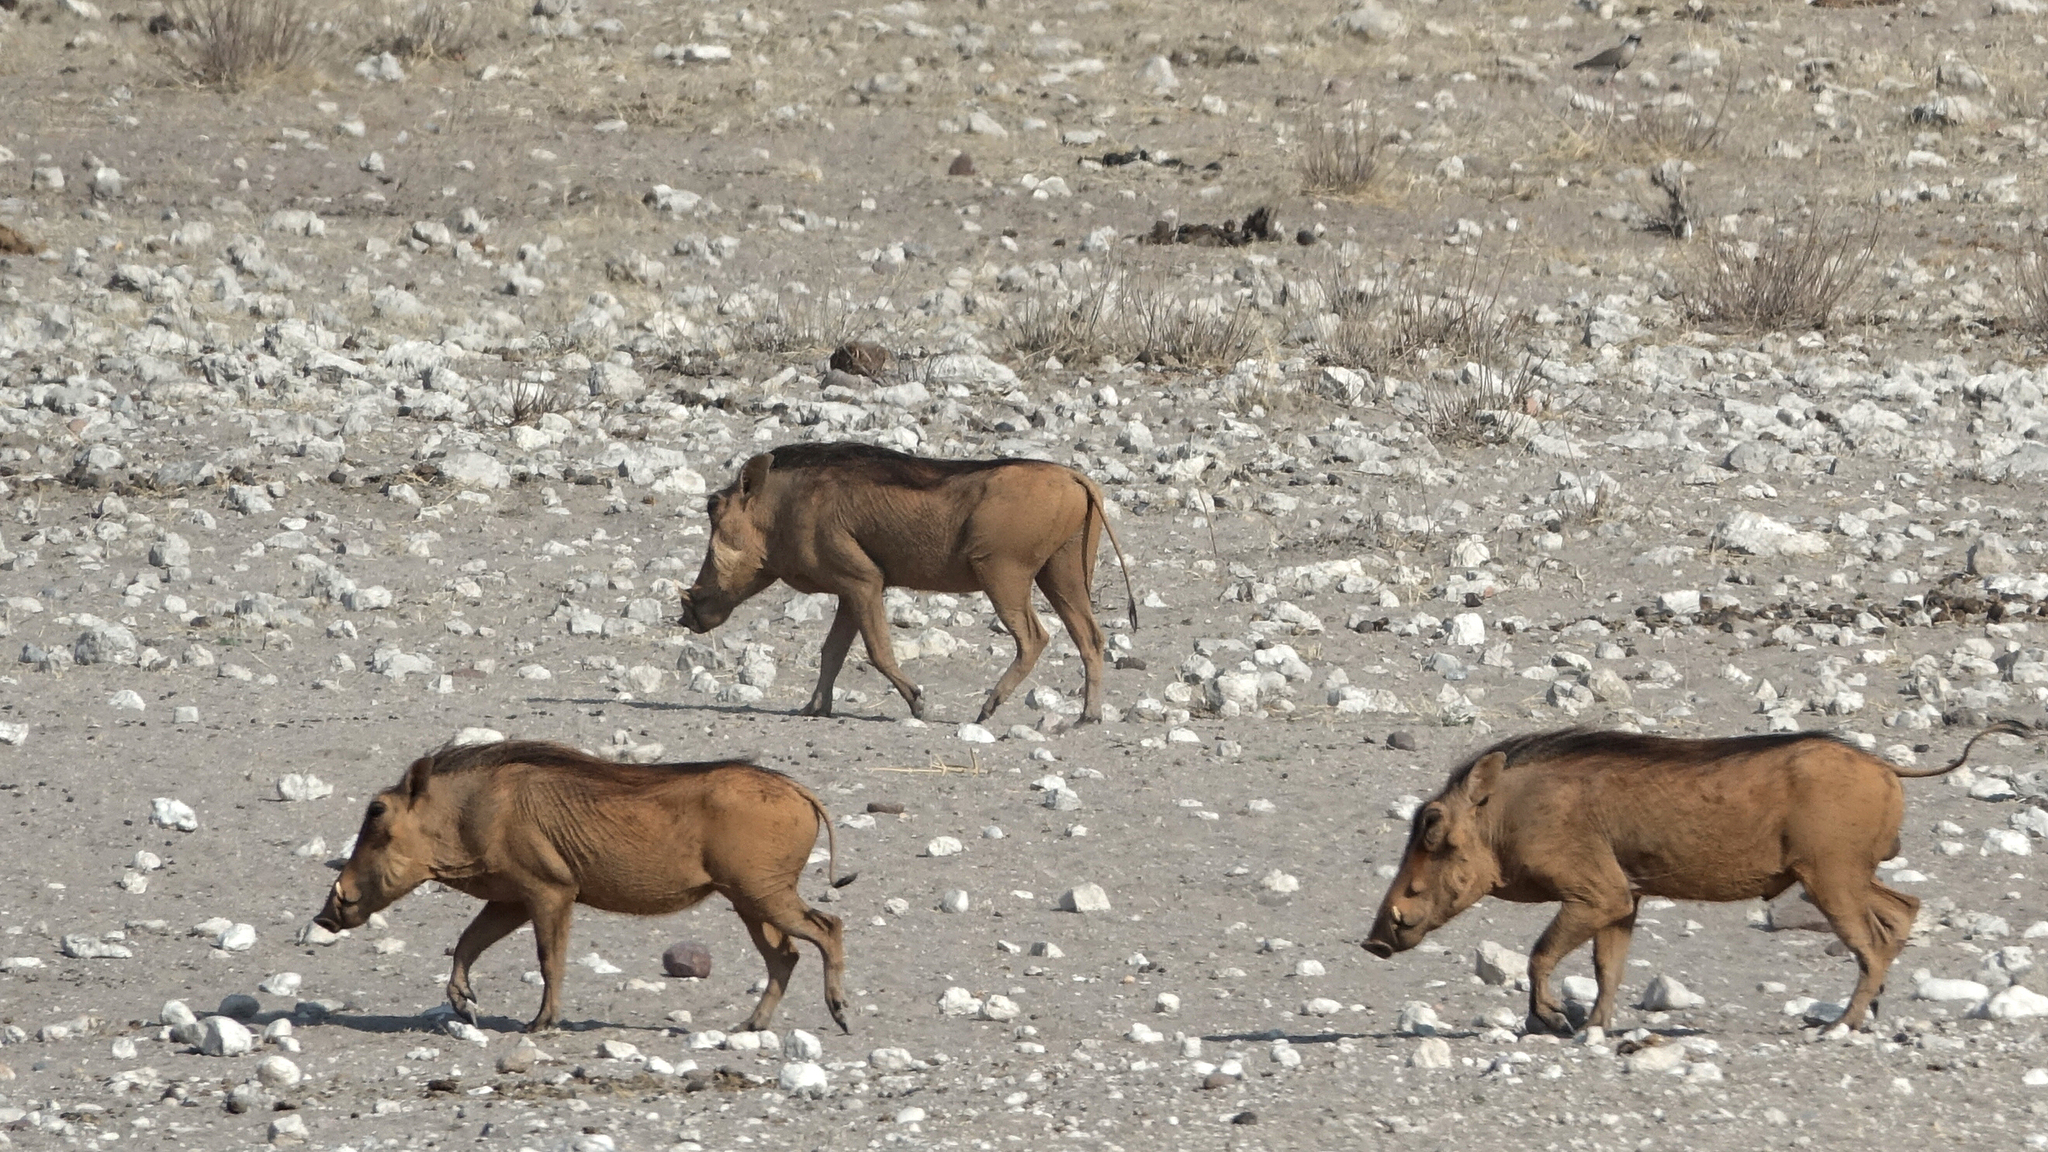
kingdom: Animalia
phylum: Chordata
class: Mammalia
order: Artiodactyla
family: Suidae
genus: Phacochoerus
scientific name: Phacochoerus africanus
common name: Common warthog
